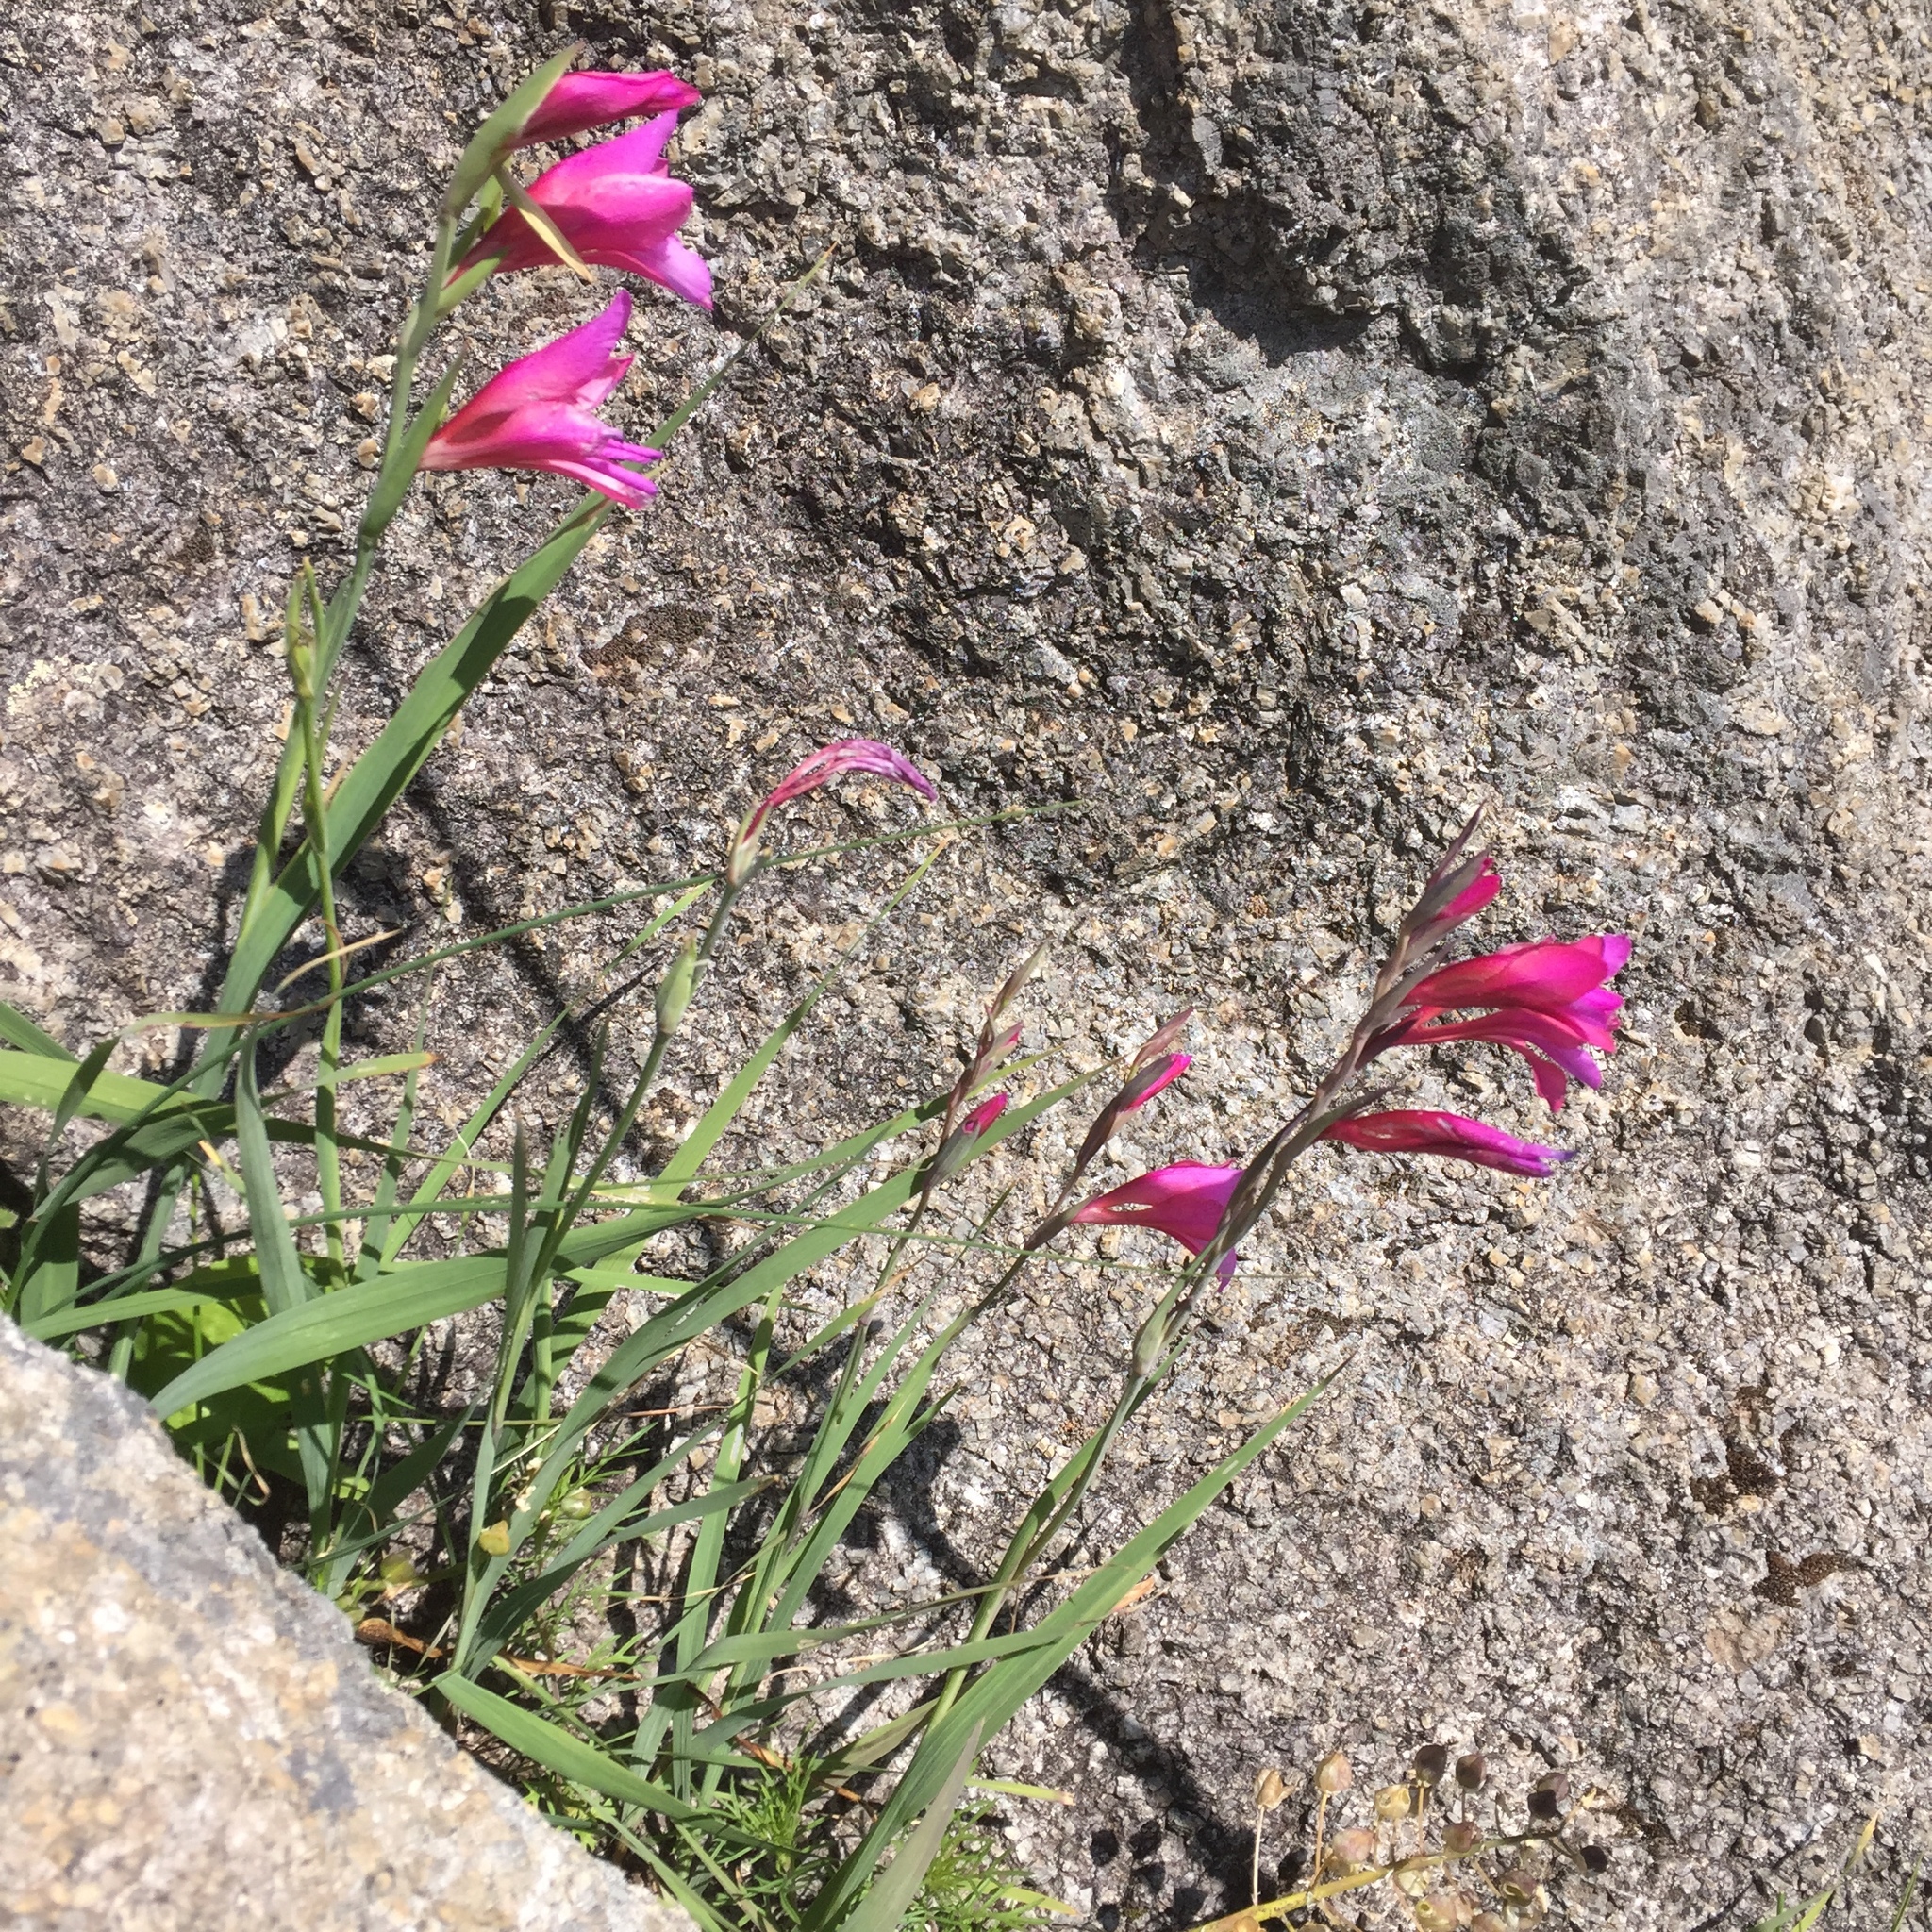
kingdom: Plantae
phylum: Tracheophyta
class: Liliopsida
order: Asparagales
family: Iridaceae
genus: Gladiolus
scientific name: Gladiolus illyricus
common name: Wild gladiolus
